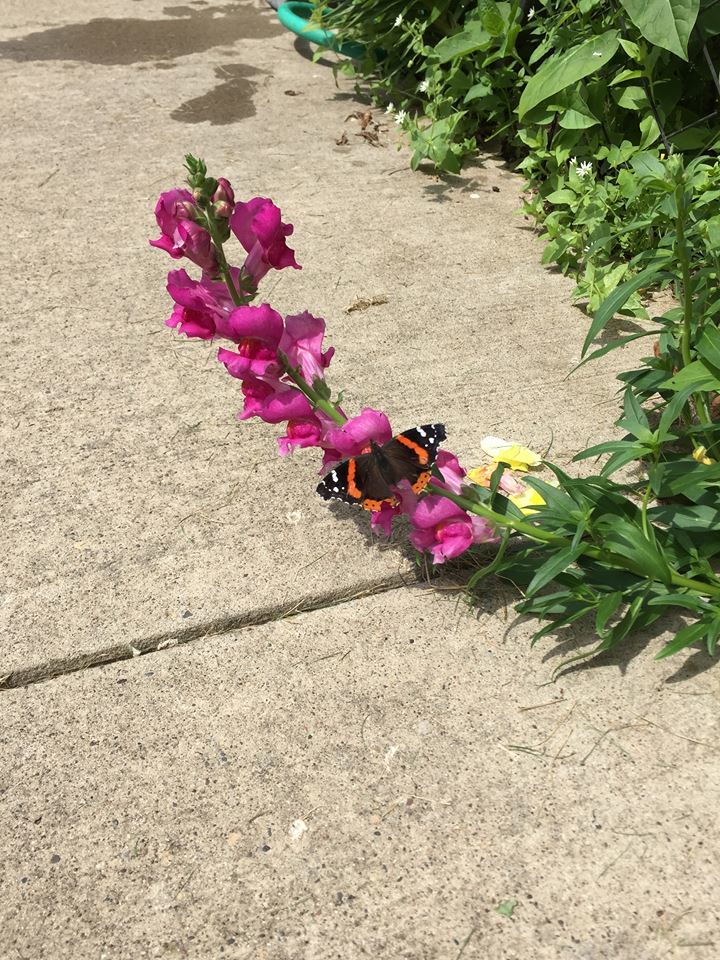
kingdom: Animalia
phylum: Arthropoda
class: Insecta
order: Lepidoptera
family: Nymphalidae
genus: Vanessa
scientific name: Vanessa atalanta
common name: Red admiral
